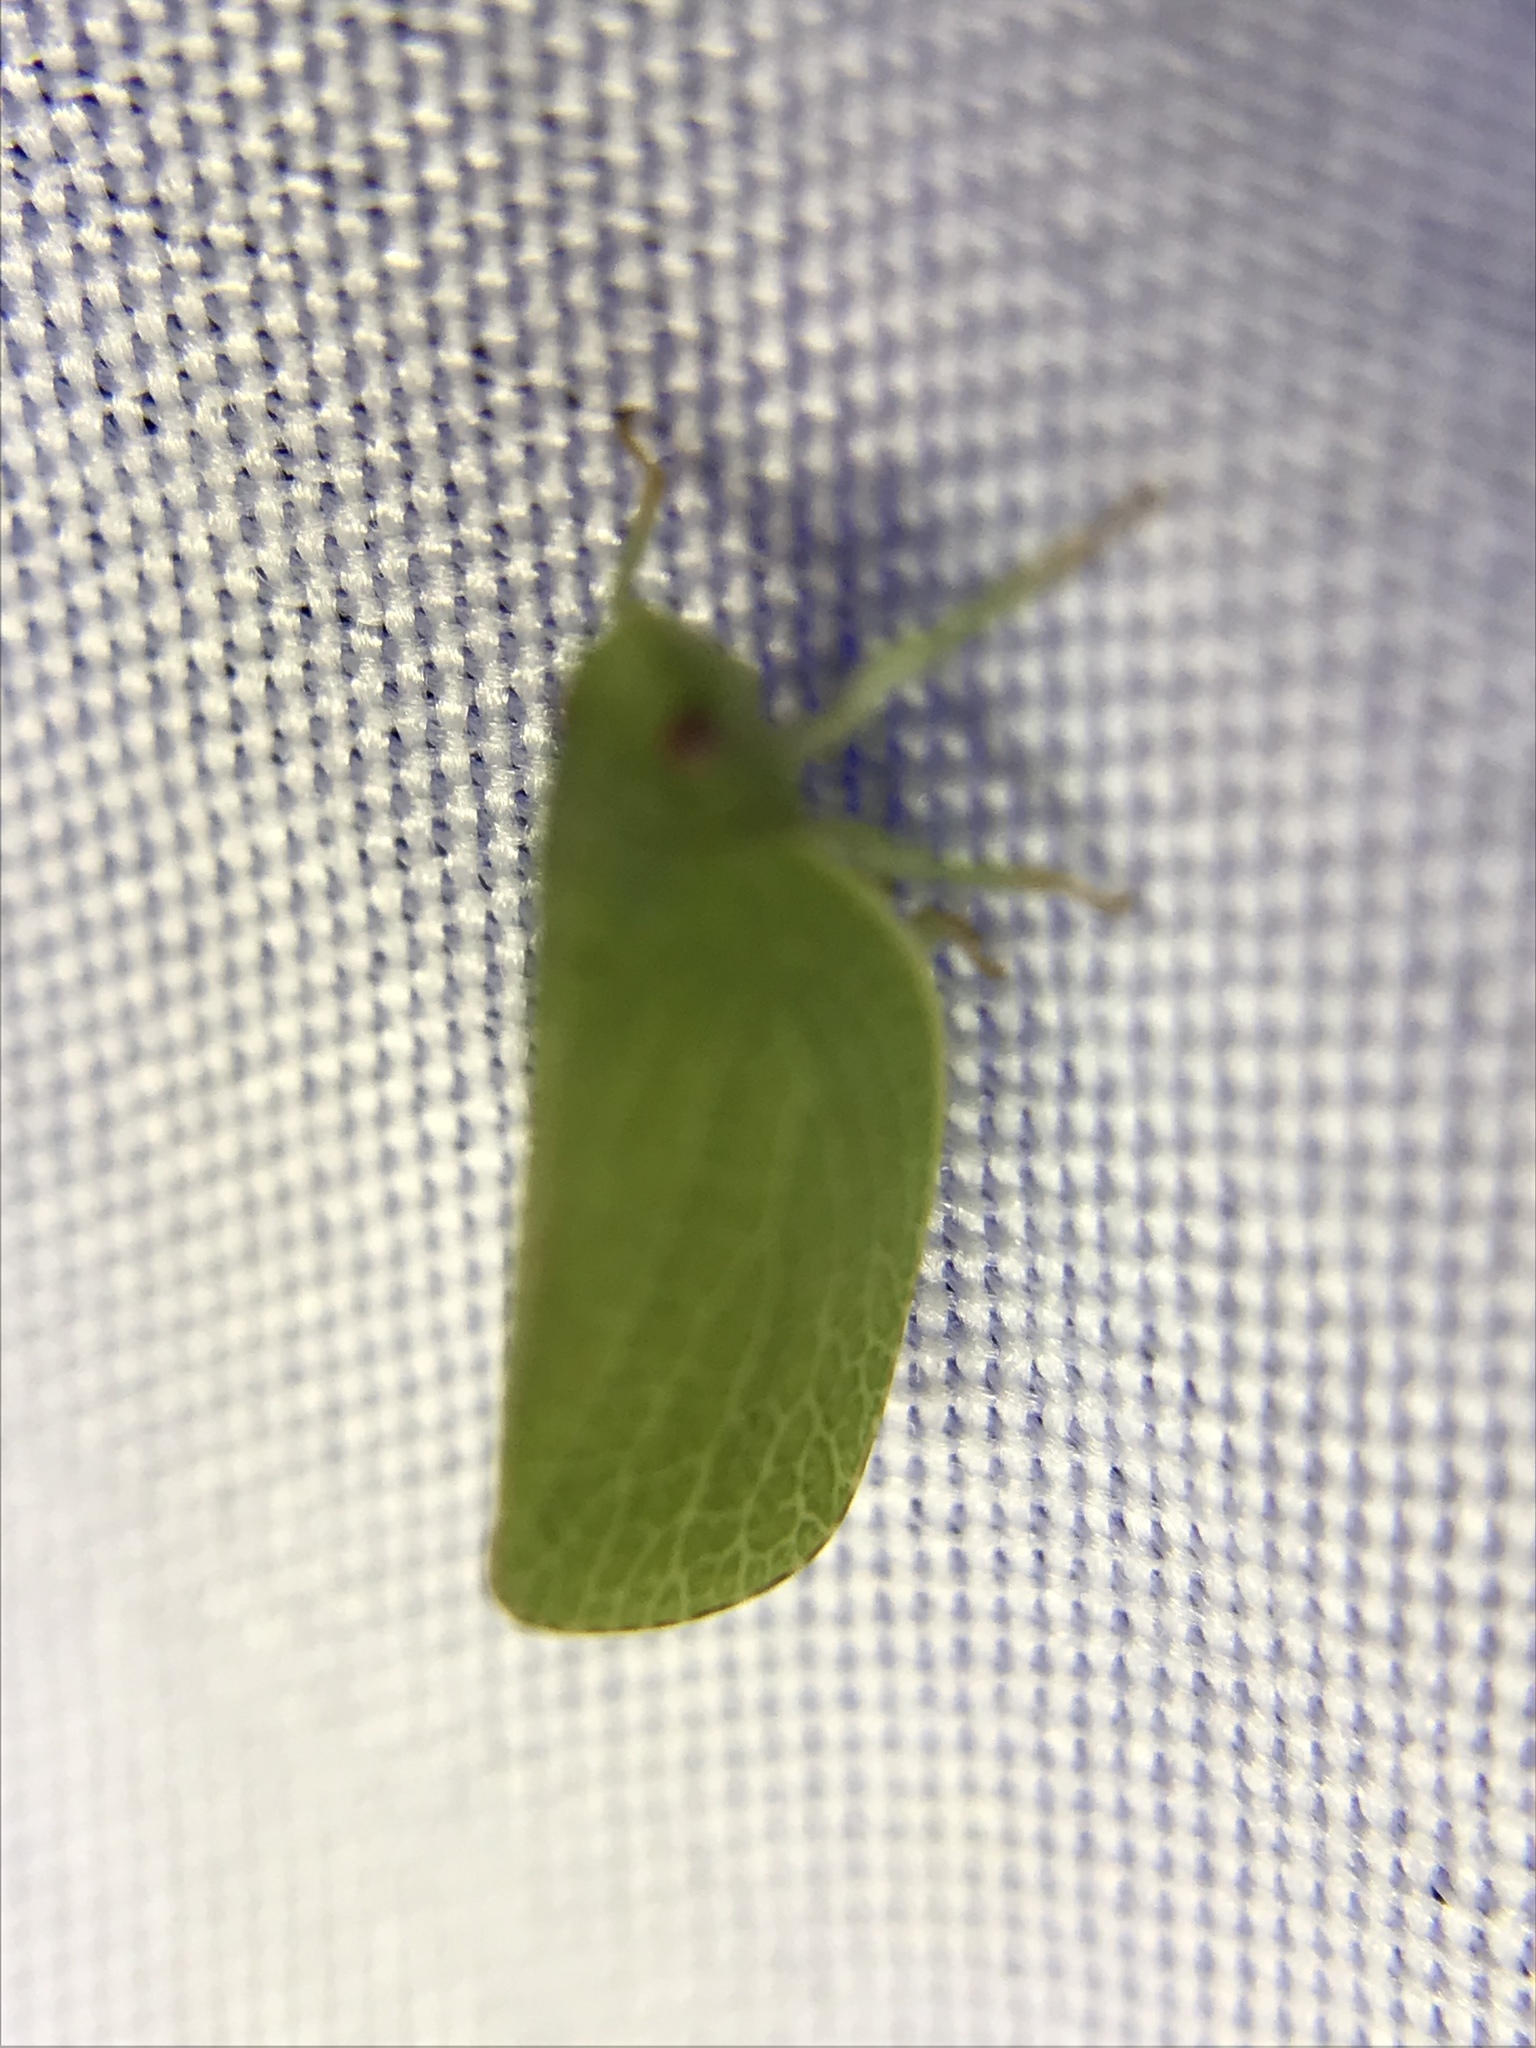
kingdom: Animalia
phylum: Arthropoda
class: Insecta
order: Hemiptera
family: Acanaloniidae
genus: Acanalonia
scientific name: Acanalonia conica
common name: Green cone-headed planthopper
